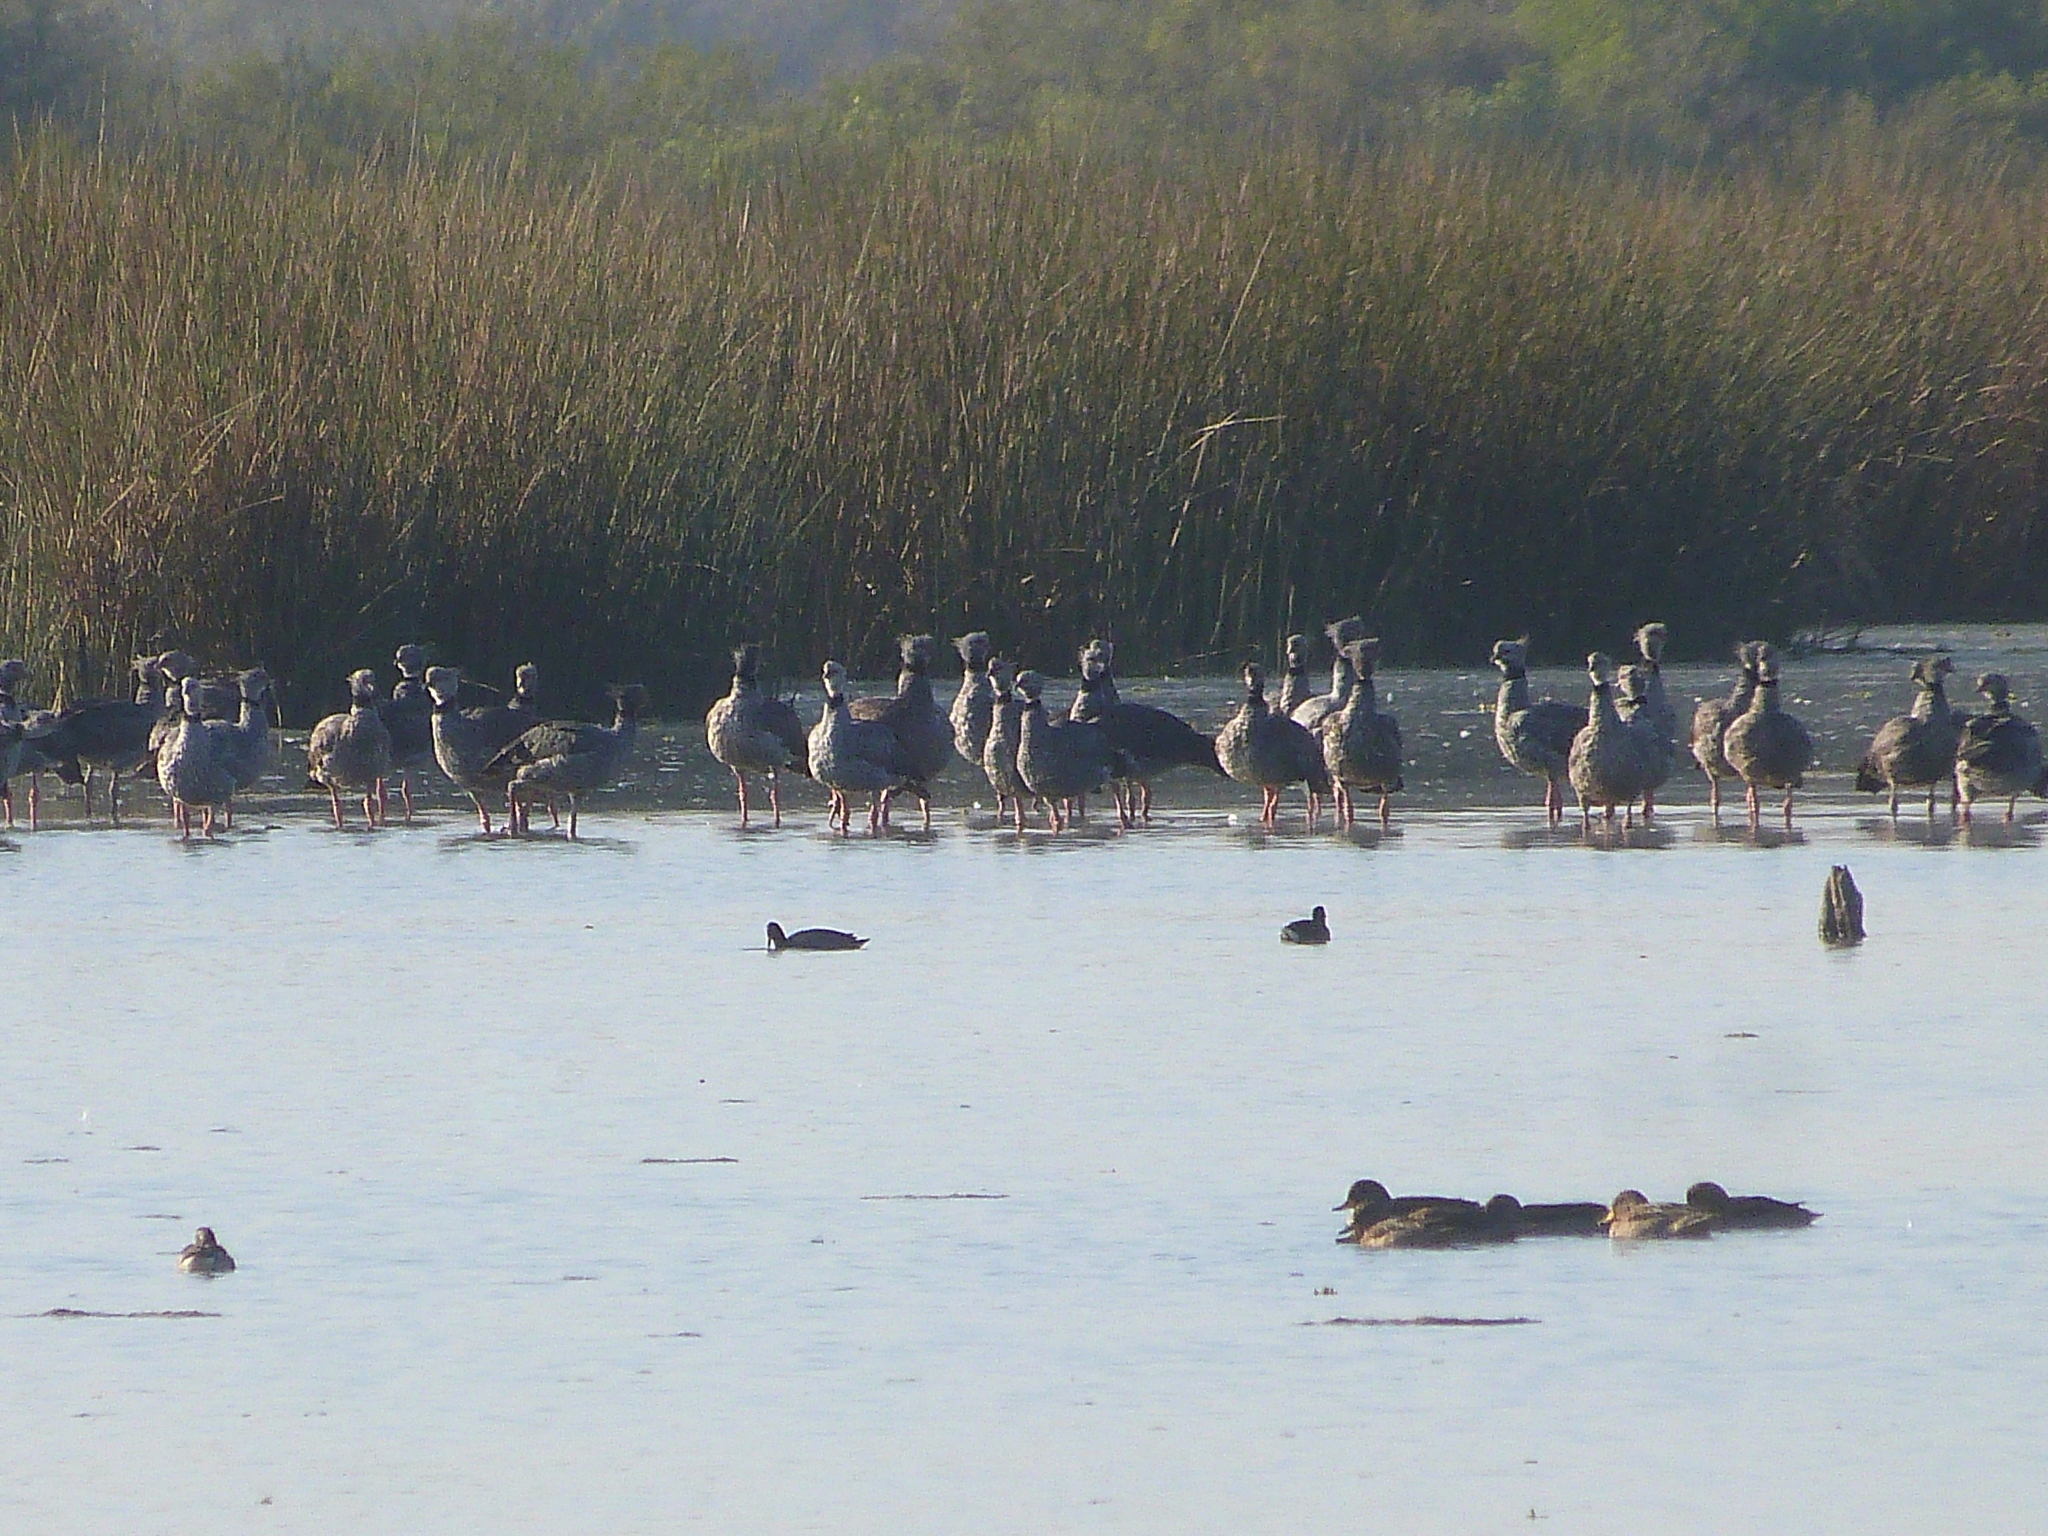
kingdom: Animalia
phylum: Chordata
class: Aves
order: Anseriformes
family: Anhimidae
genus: Chauna
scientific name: Chauna torquata
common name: Southern screamer
